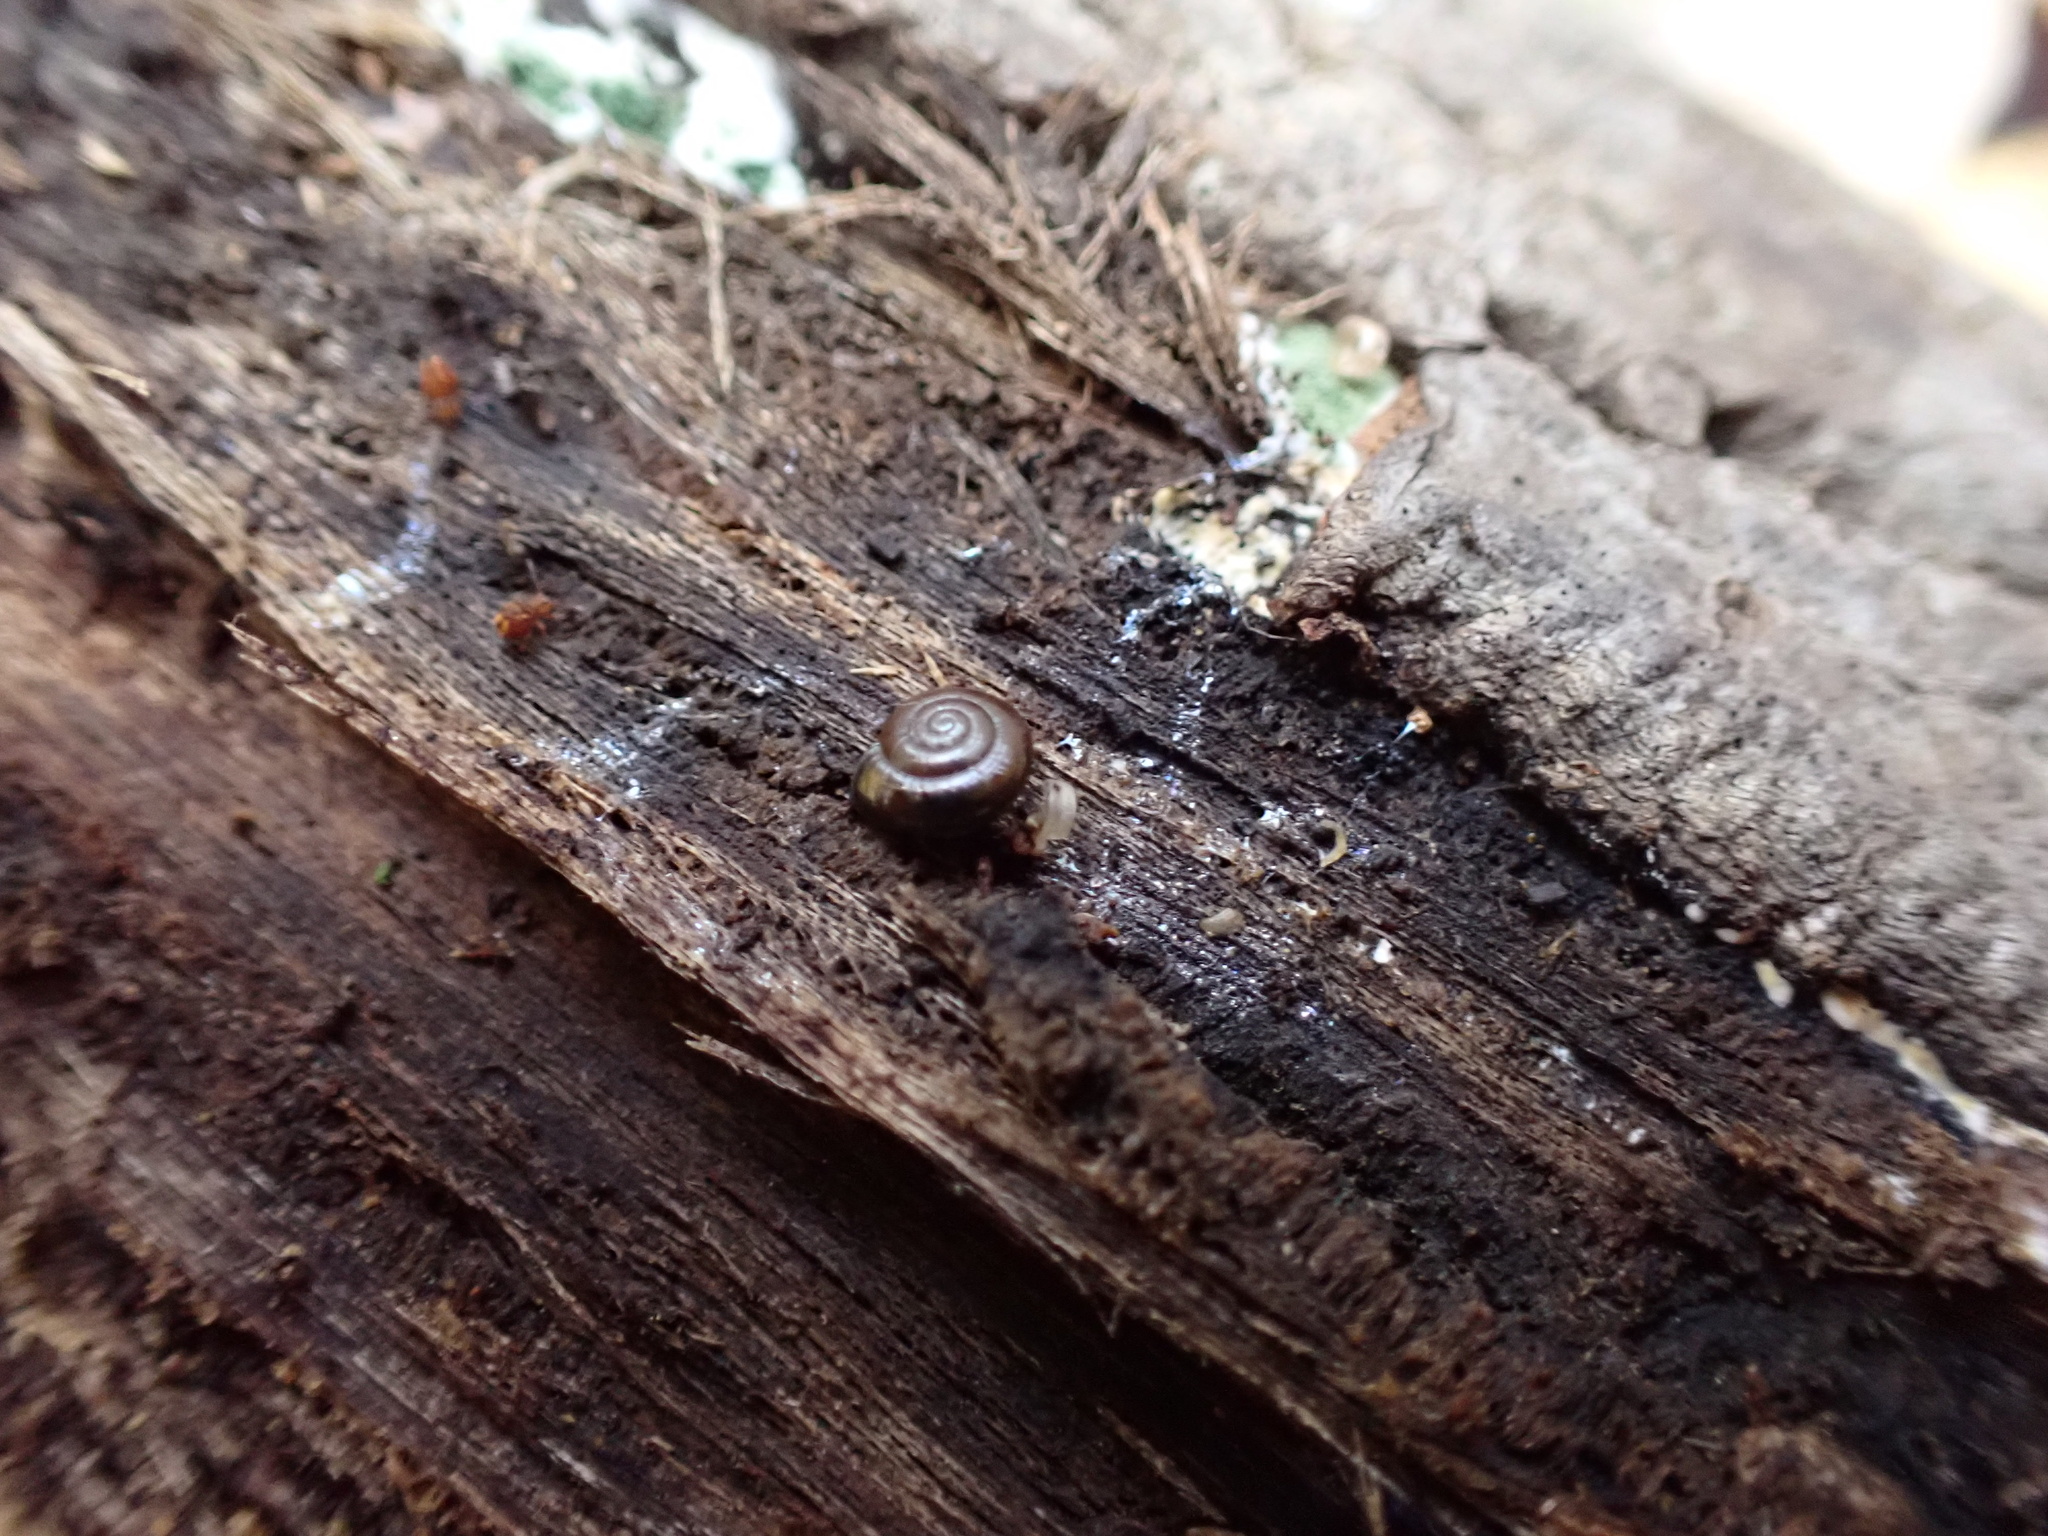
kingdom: Animalia
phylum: Mollusca
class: Gastropoda
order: Stylommatophora
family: Gastrodontidae
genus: Zonitoides
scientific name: Zonitoides arboreus
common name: Quick gloss
